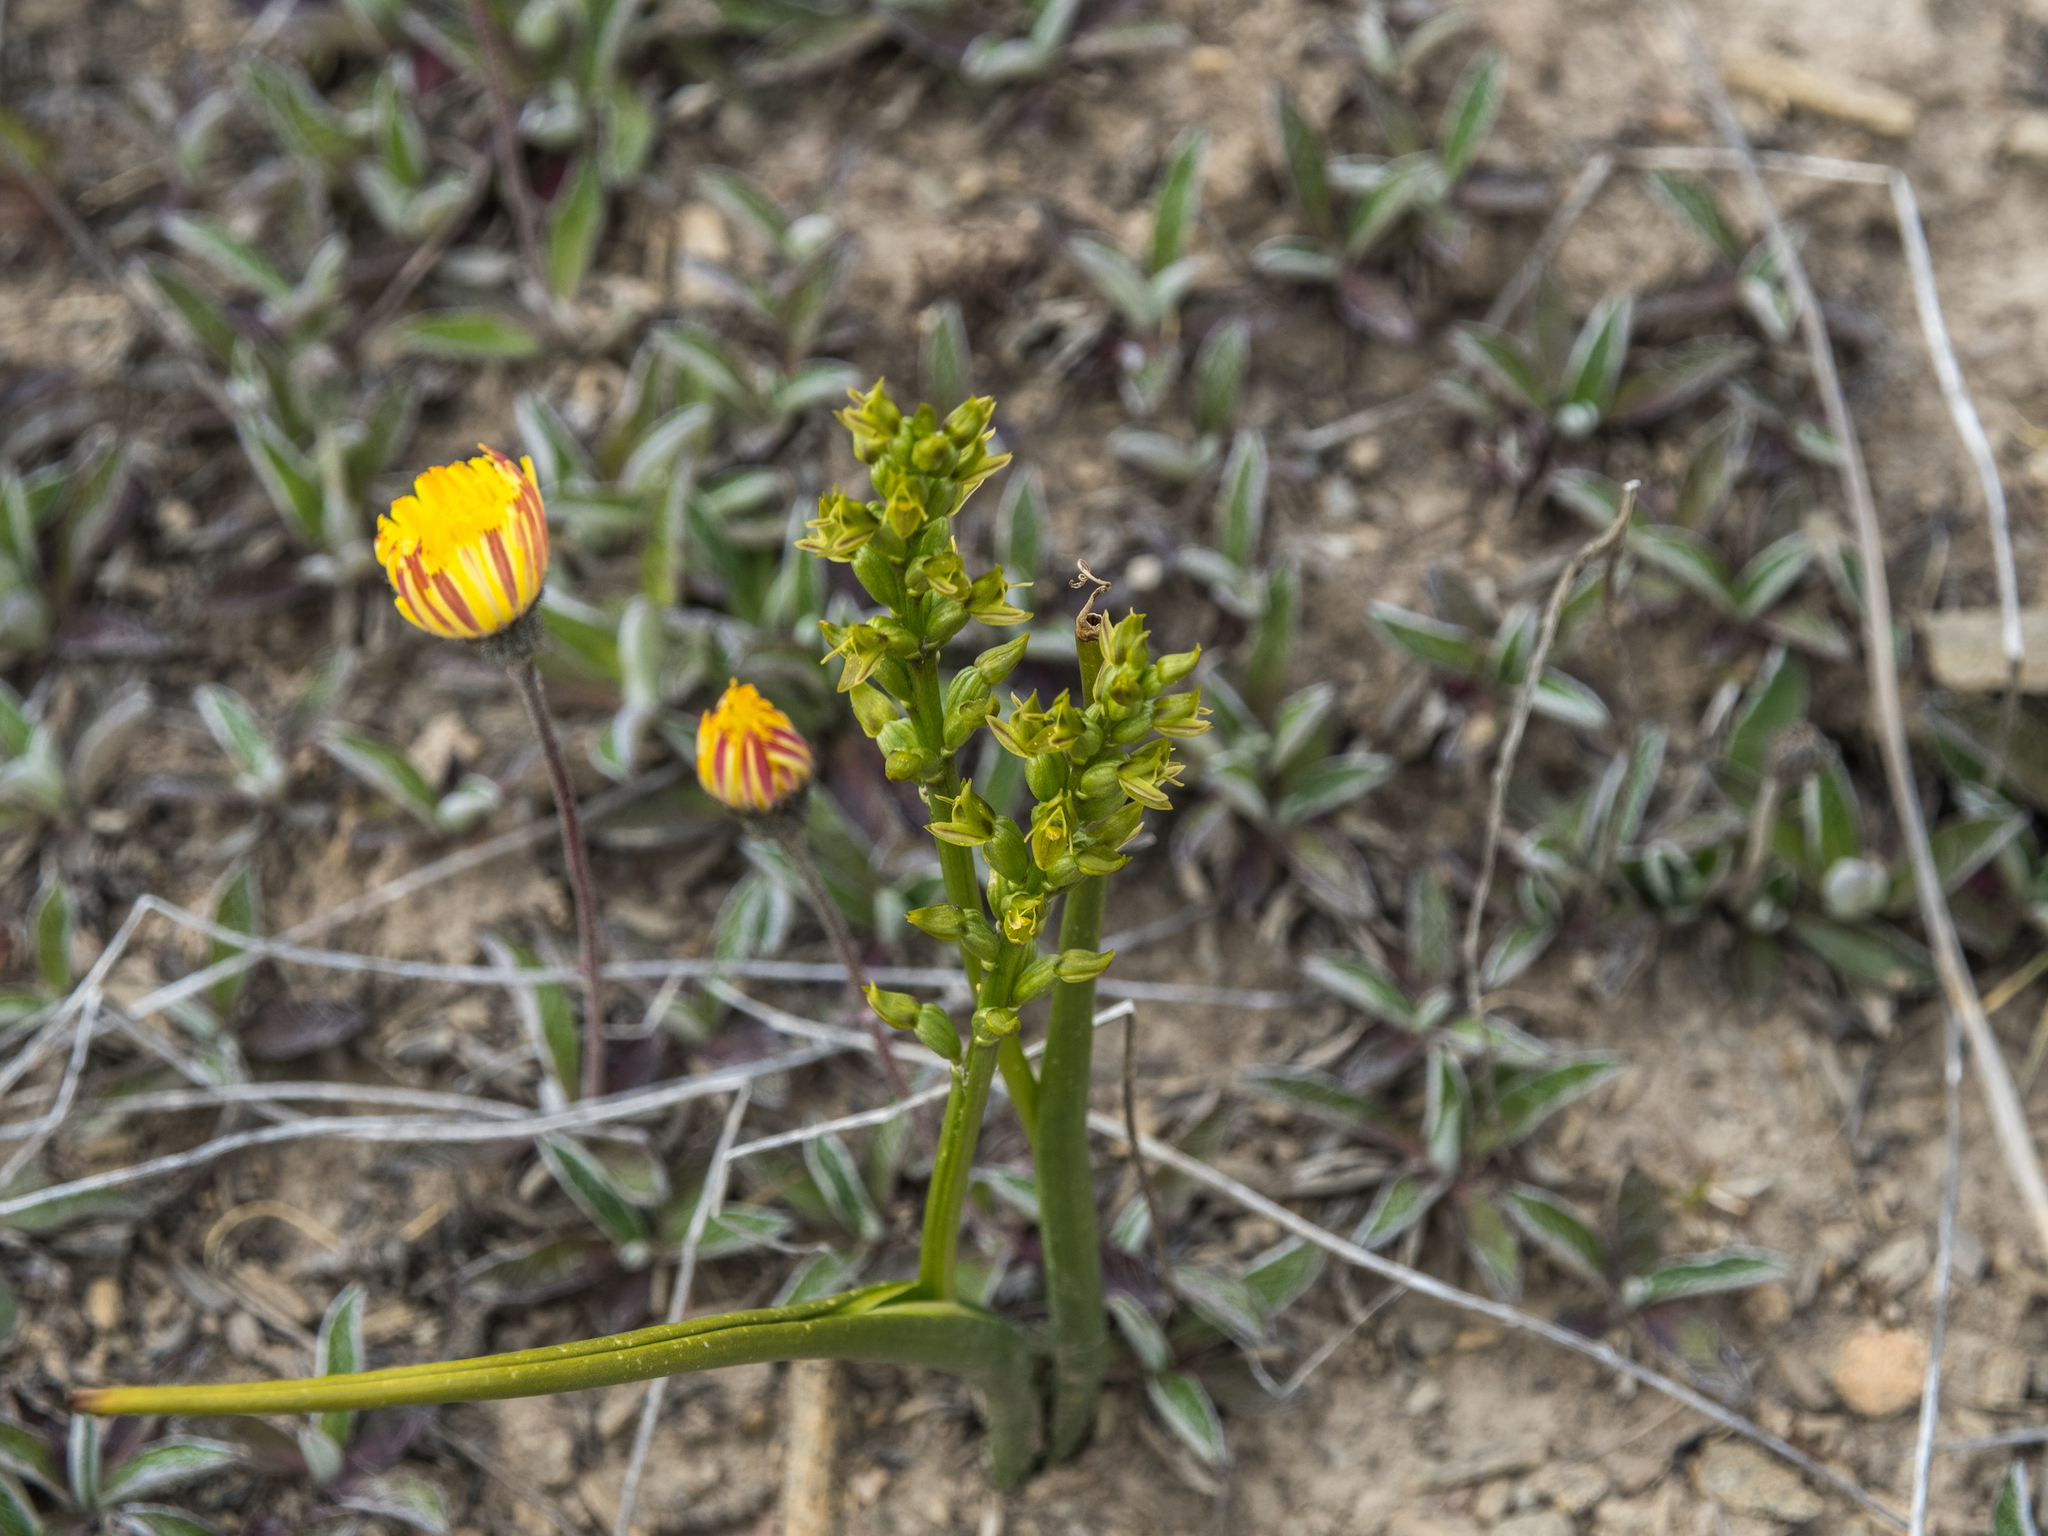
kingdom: Plantae
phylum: Tracheophyta
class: Liliopsida
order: Asparagales
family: Orchidaceae
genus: Prasophyllum
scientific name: Prasophyllum colensoi
